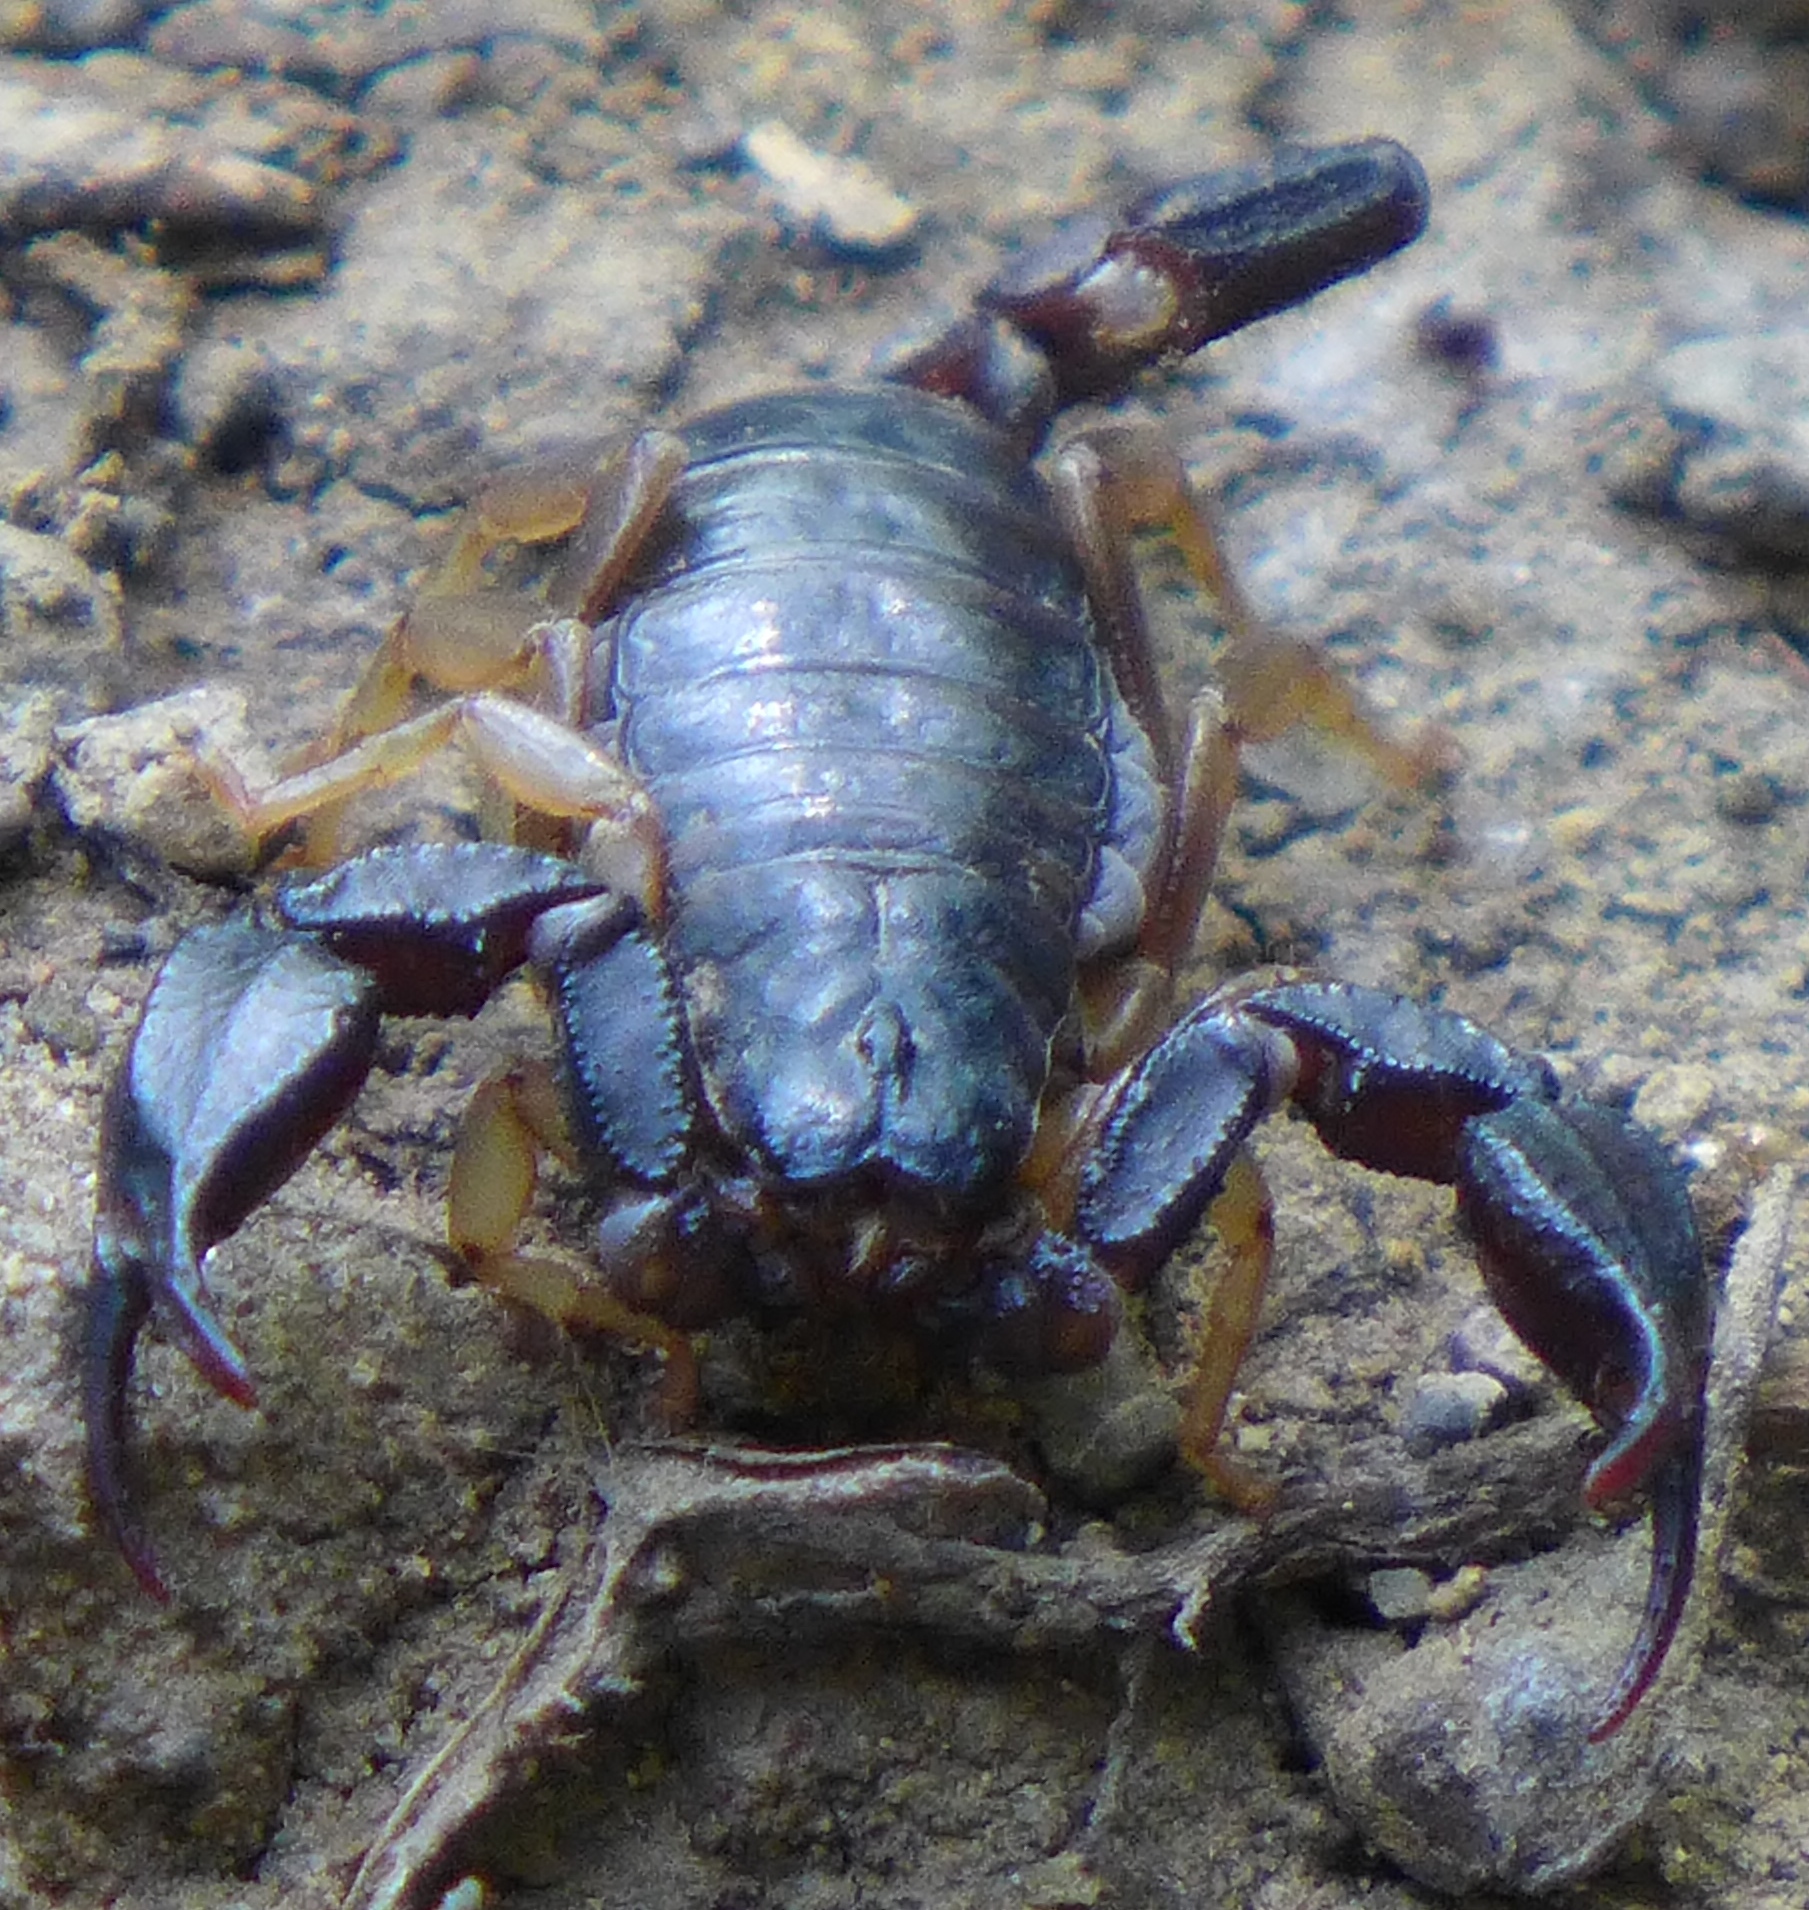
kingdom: Animalia
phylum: Arthropoda
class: Arachnida
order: Scorpiones
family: Chactidae
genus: Uroctonus
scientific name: Uroctonus mordax
